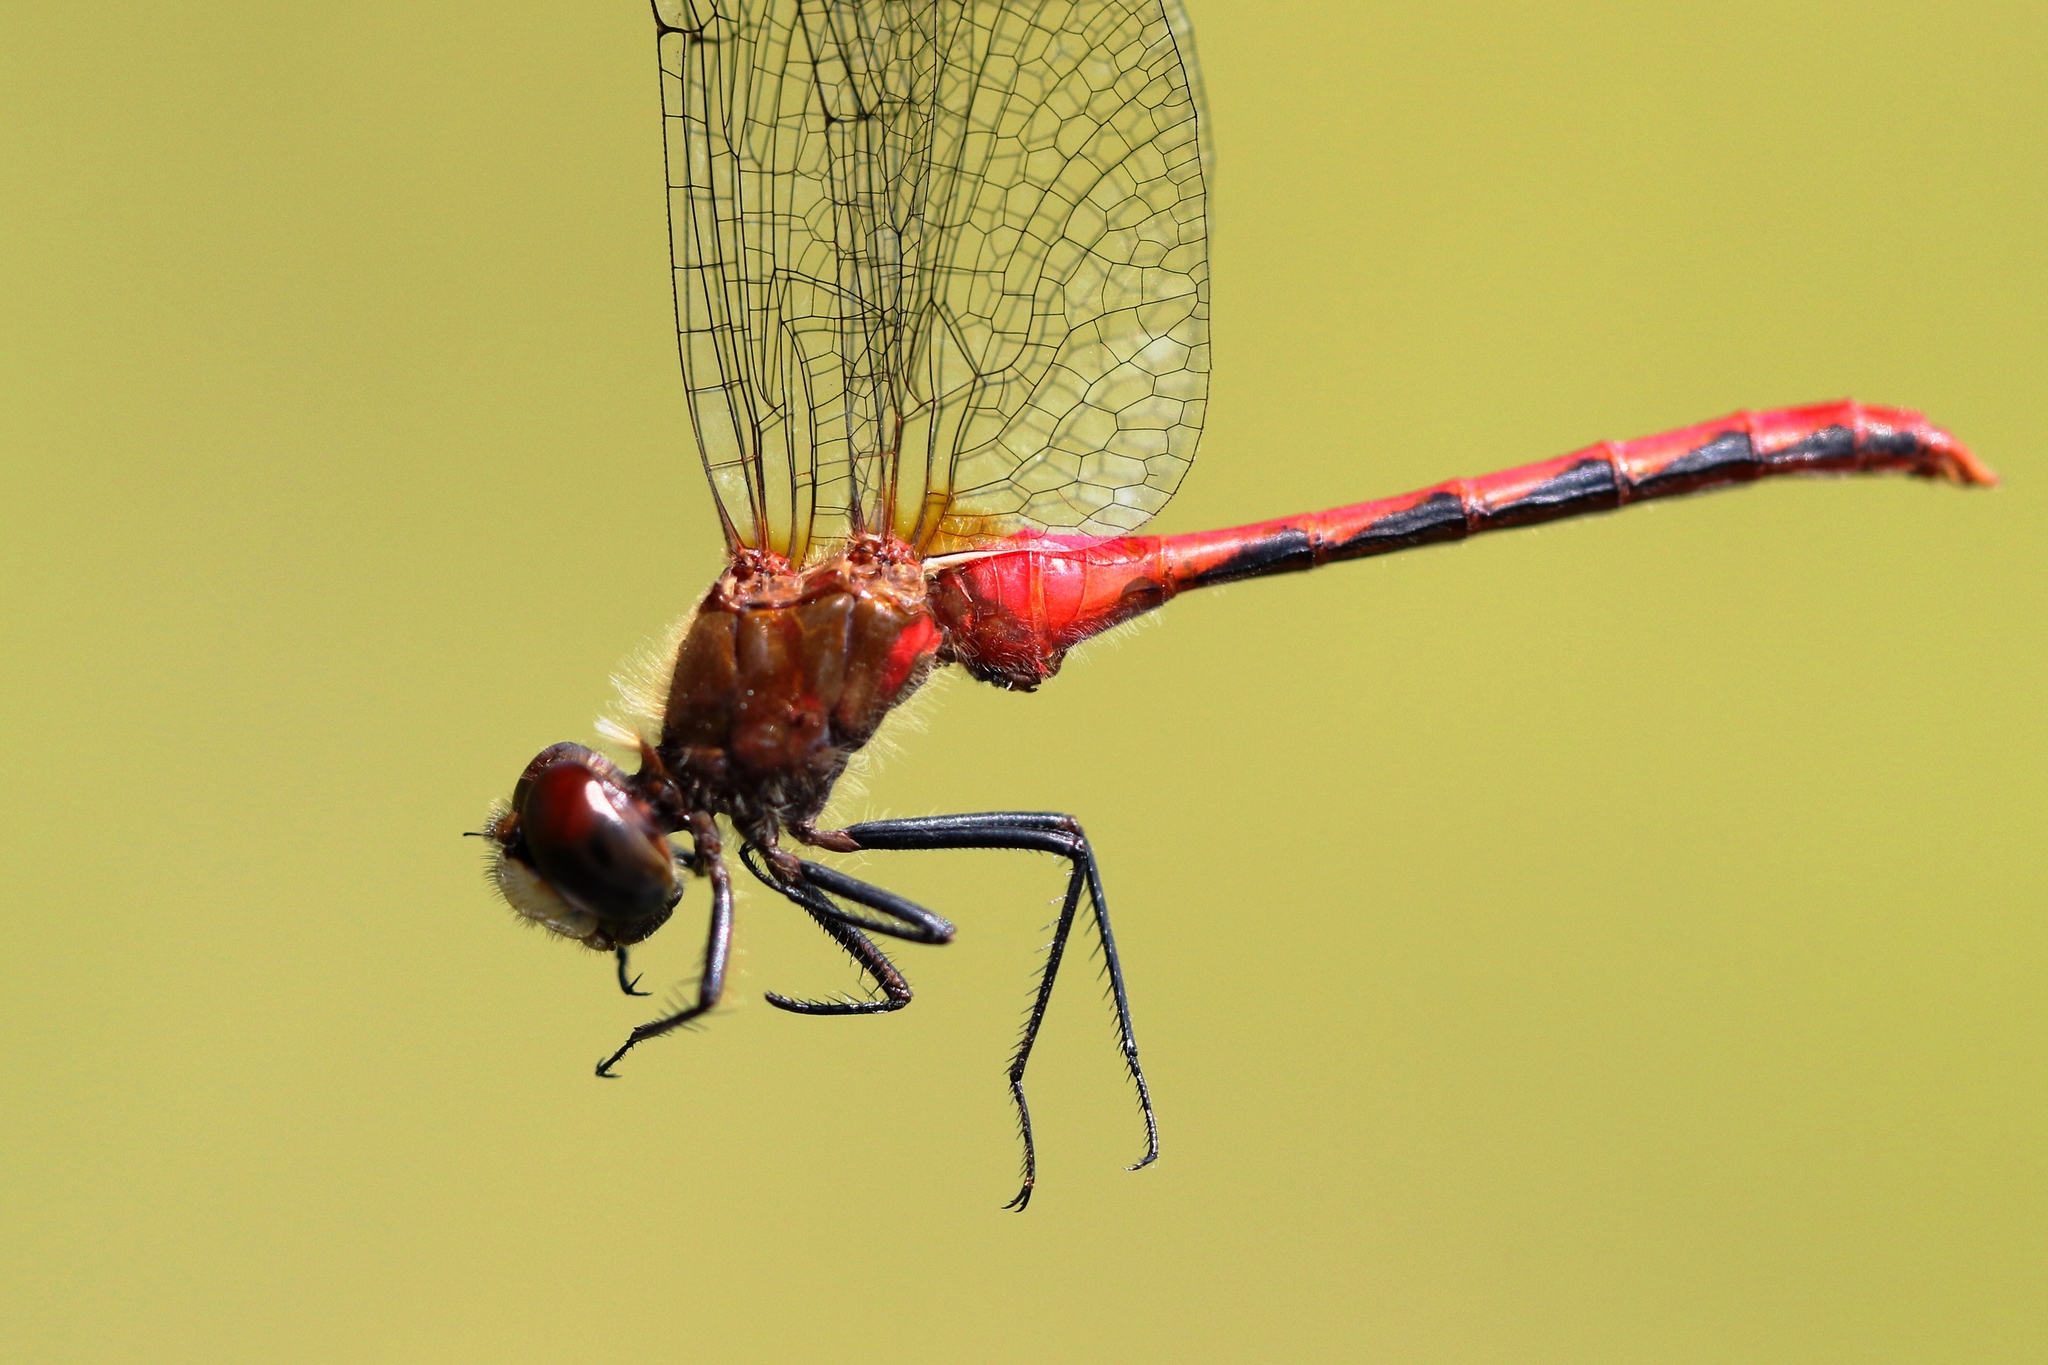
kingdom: Animalia
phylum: Arthropoda
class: Insecta
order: Odonata
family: Libellulidae
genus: Sympetrum
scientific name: Sympetrum obtrusum
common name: White-faced meadowhawk
